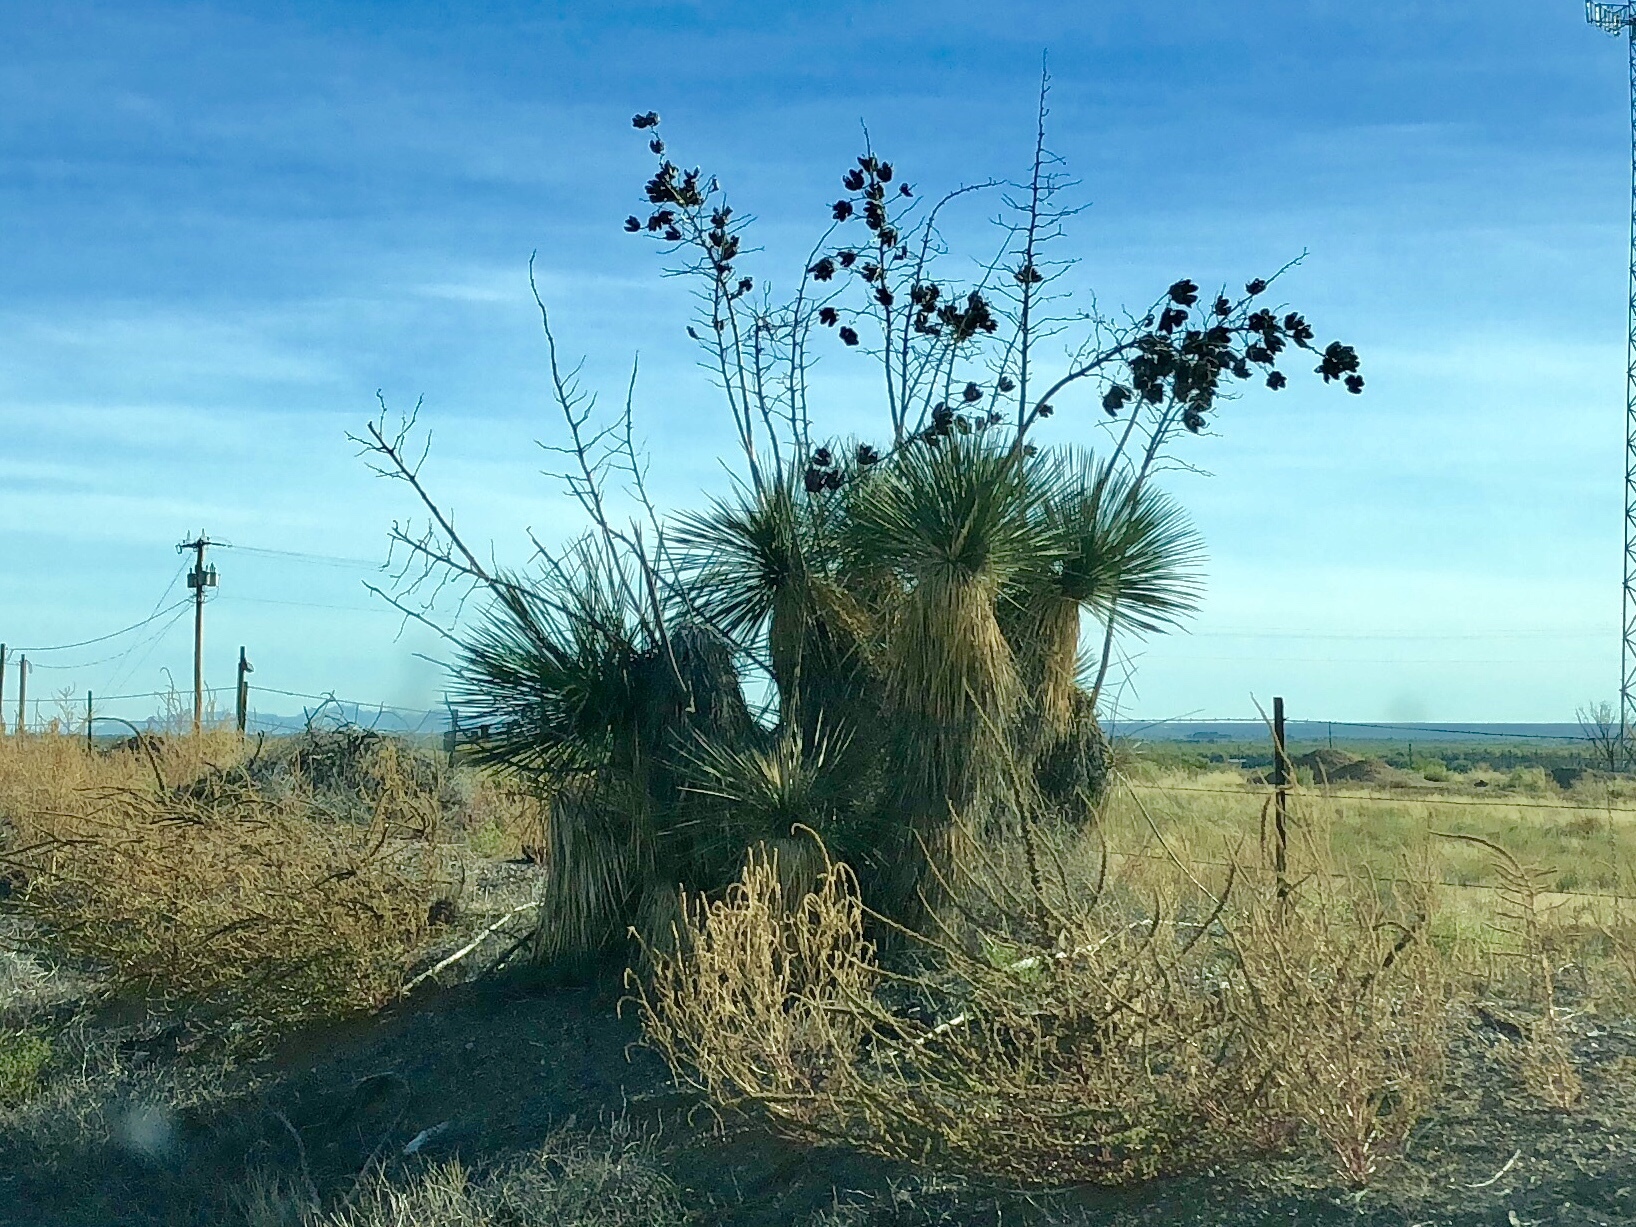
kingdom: Plantae
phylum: Tracheophyta
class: Liliopsida
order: Asparagales
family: Asparagaceae
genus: Yucca
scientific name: Yucca elata
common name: Palmella
